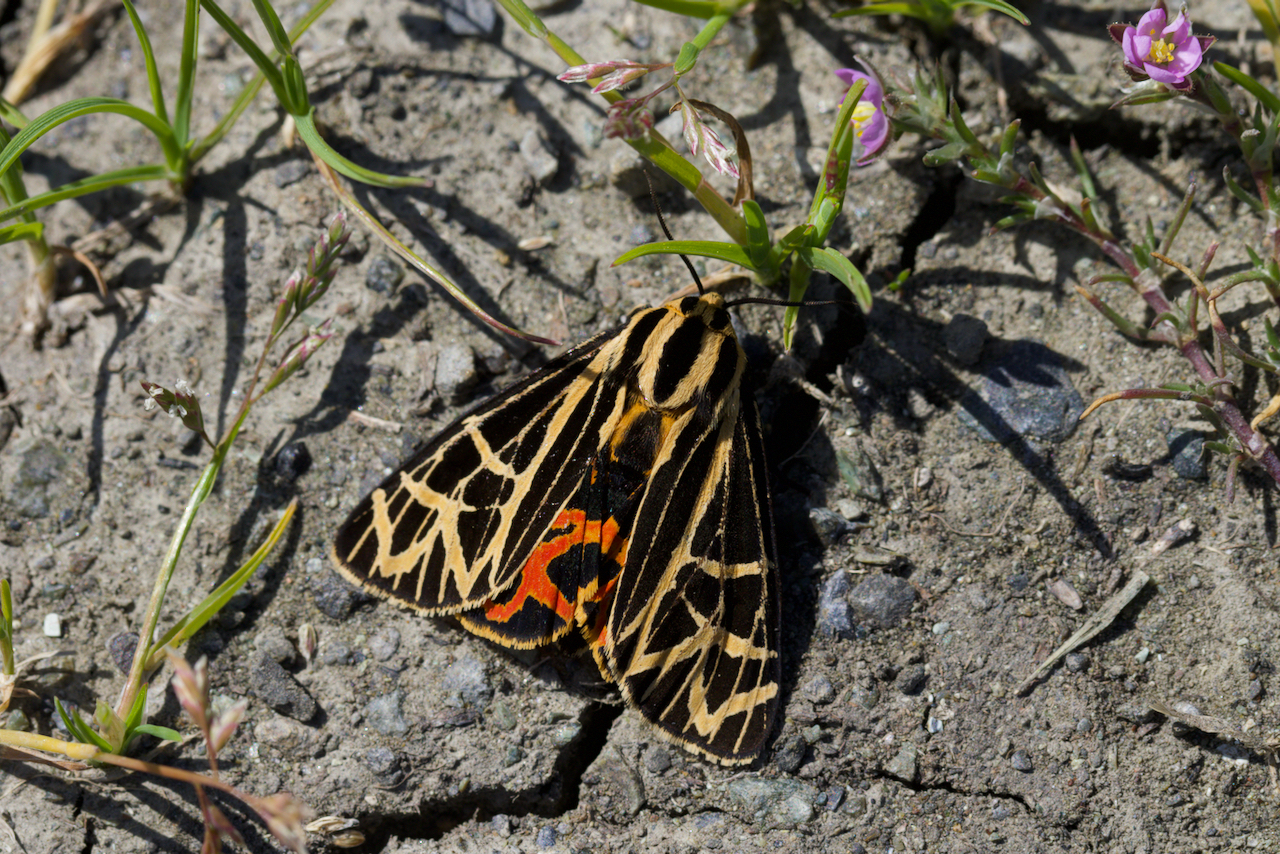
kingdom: Animalia
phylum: Arthropoda
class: Insecta
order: Lepidoptera
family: Erebidae
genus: Apantesis
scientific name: Apantesis
